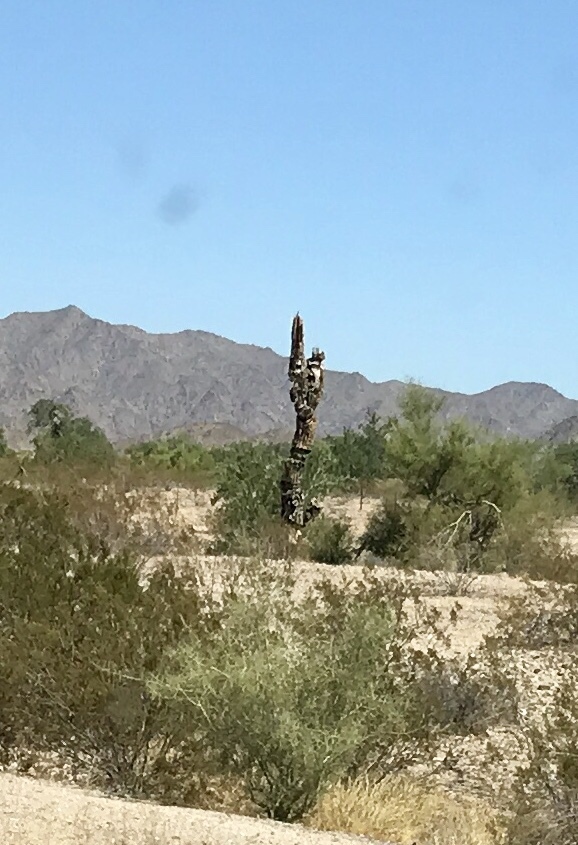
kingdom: Plantae
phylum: Tracheophyta
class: Magnoliopsida
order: Caryophyllales
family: Cactaceae
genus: Carnegiea
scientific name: Carnegiea gigantea
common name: Saguaro
